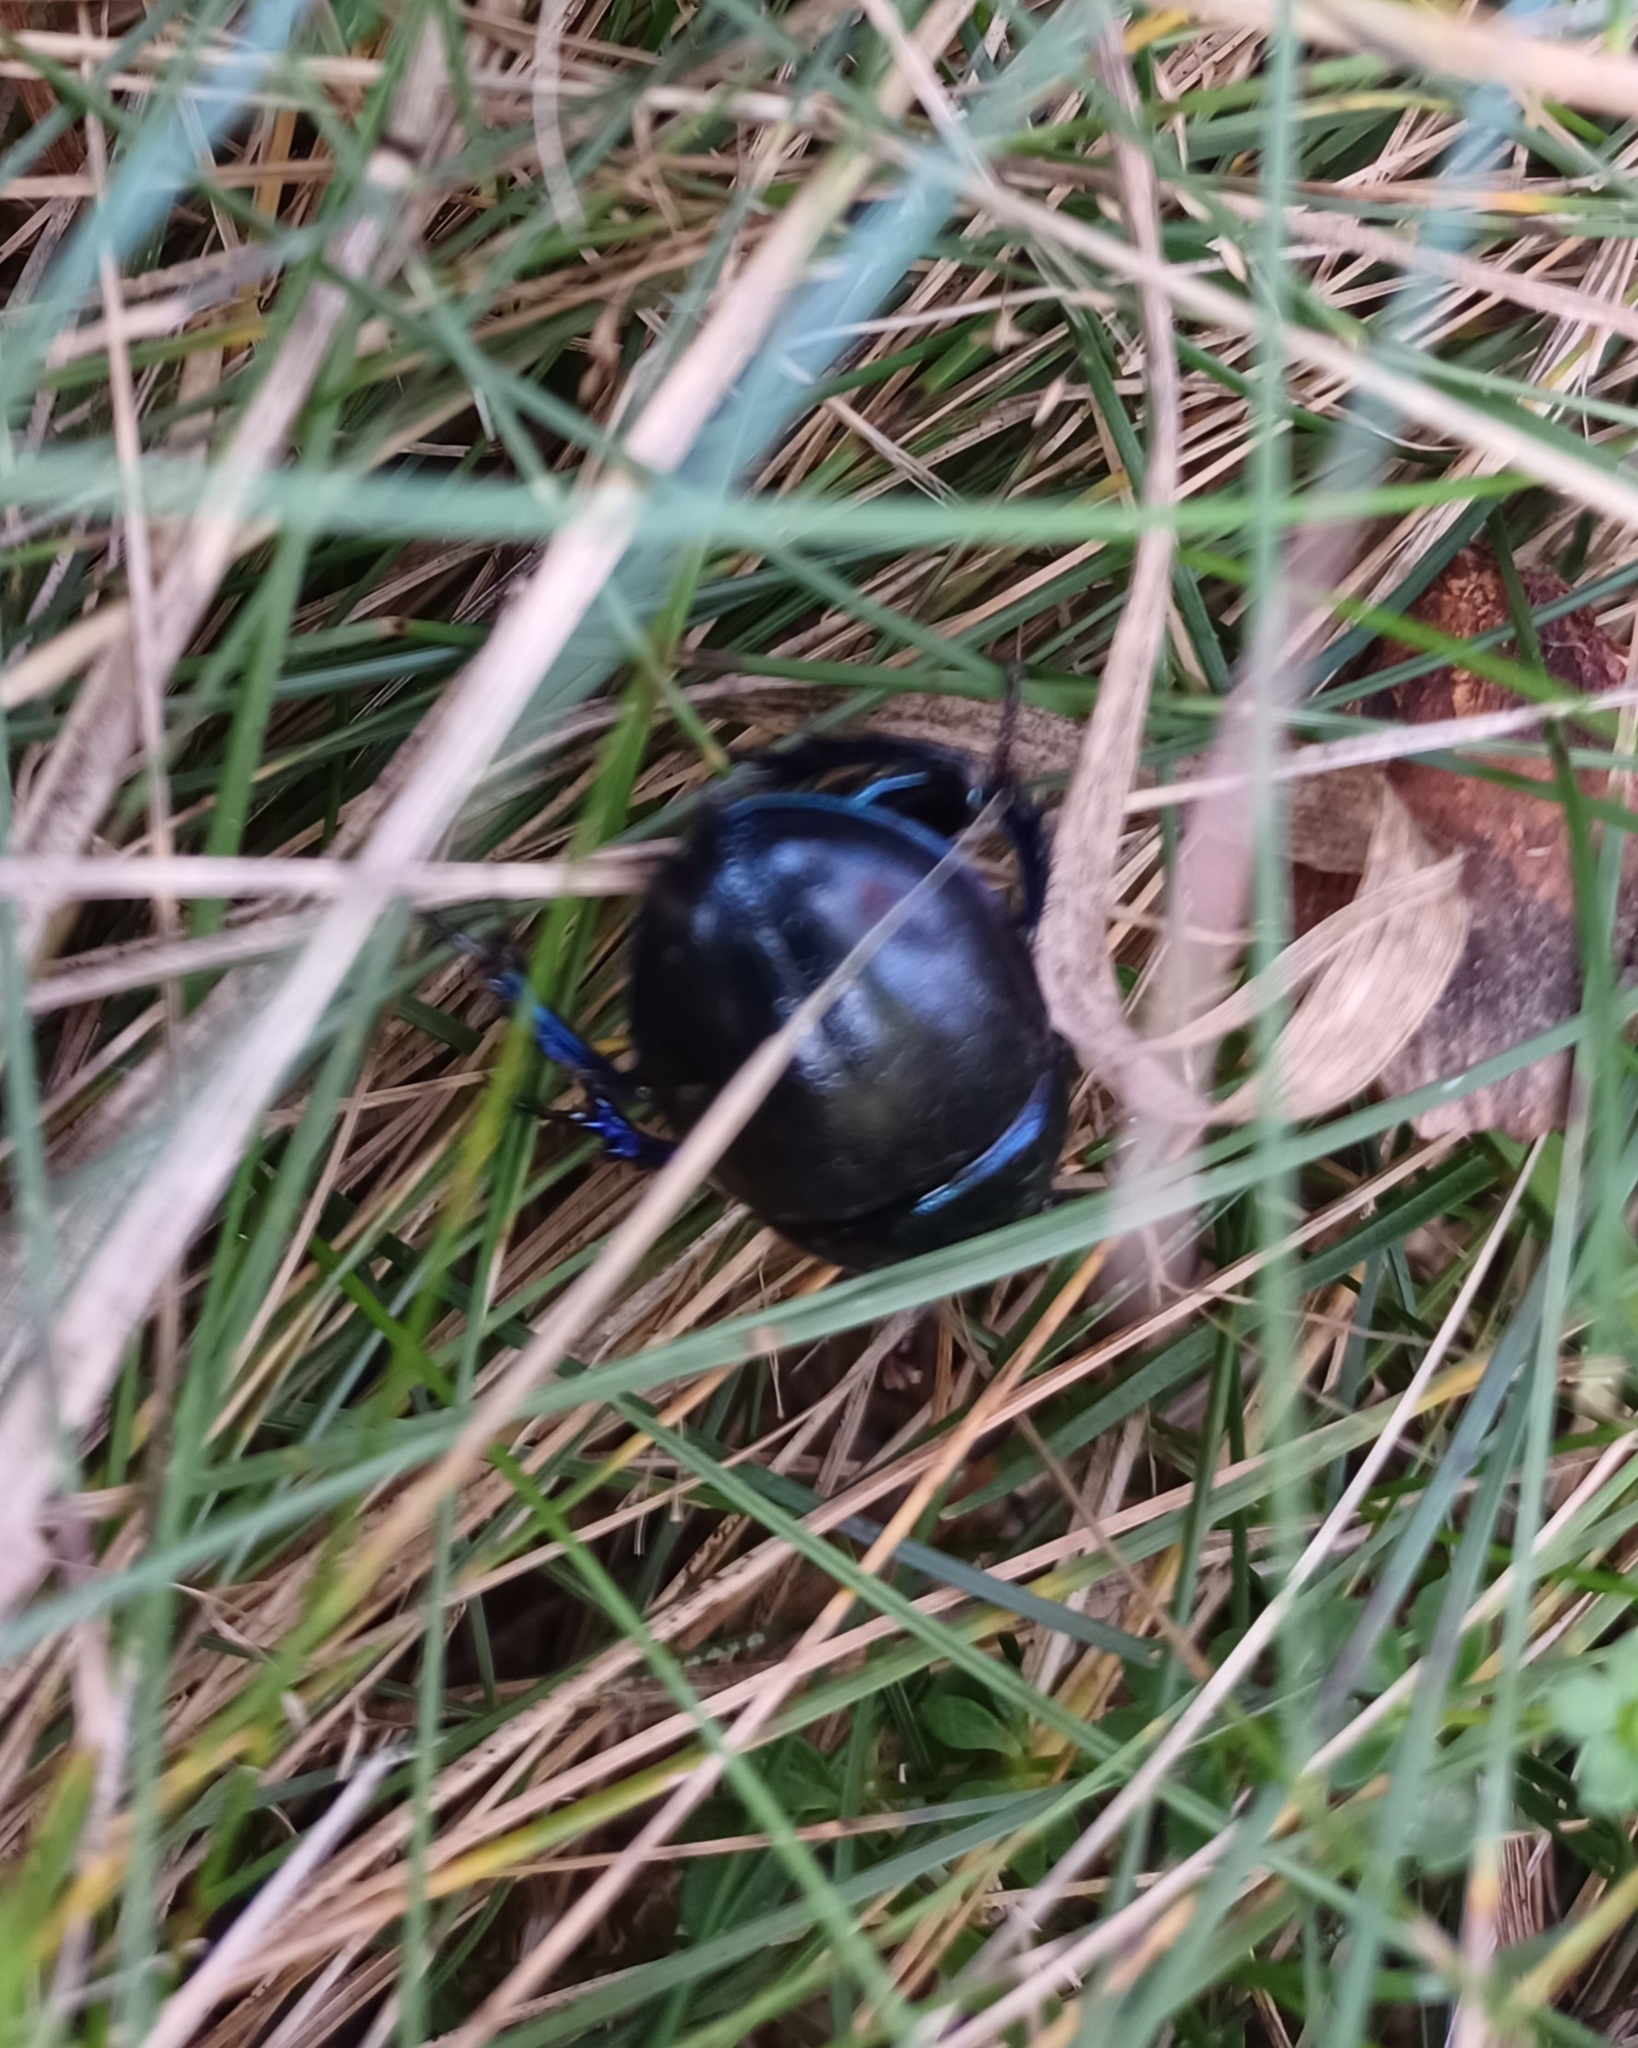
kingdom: Animalia
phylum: Arthropoda
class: Insecta
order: Coleoptera
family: Geotrupidae
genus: Anoplotrupes
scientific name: Anoplotrupes stercorosus
